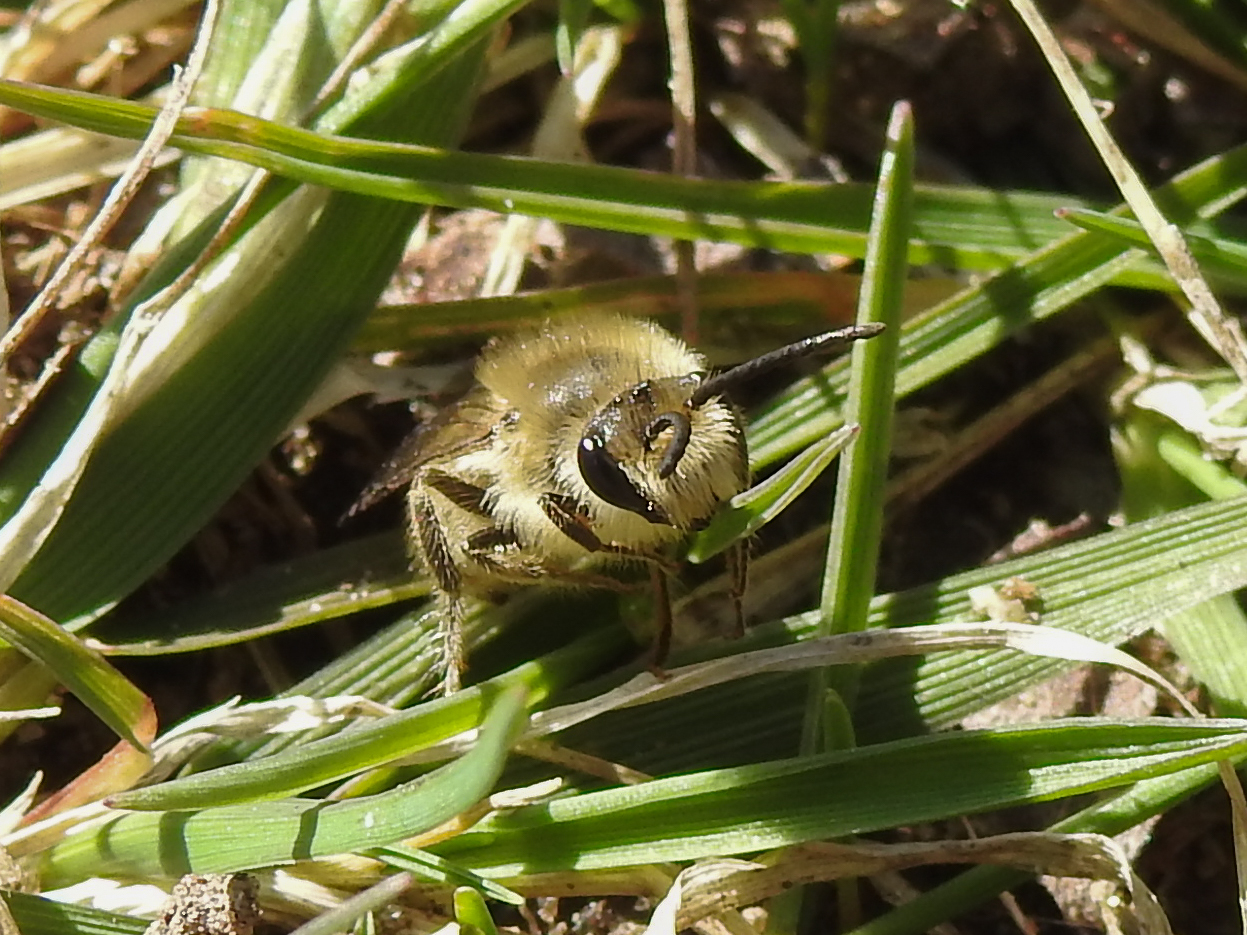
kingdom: Animalia
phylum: Arthropoda
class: Insecta
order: Hymenoptera
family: Colletidae
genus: Colletes
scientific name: Colletes inaequalis
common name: Unequal cellophane bee
